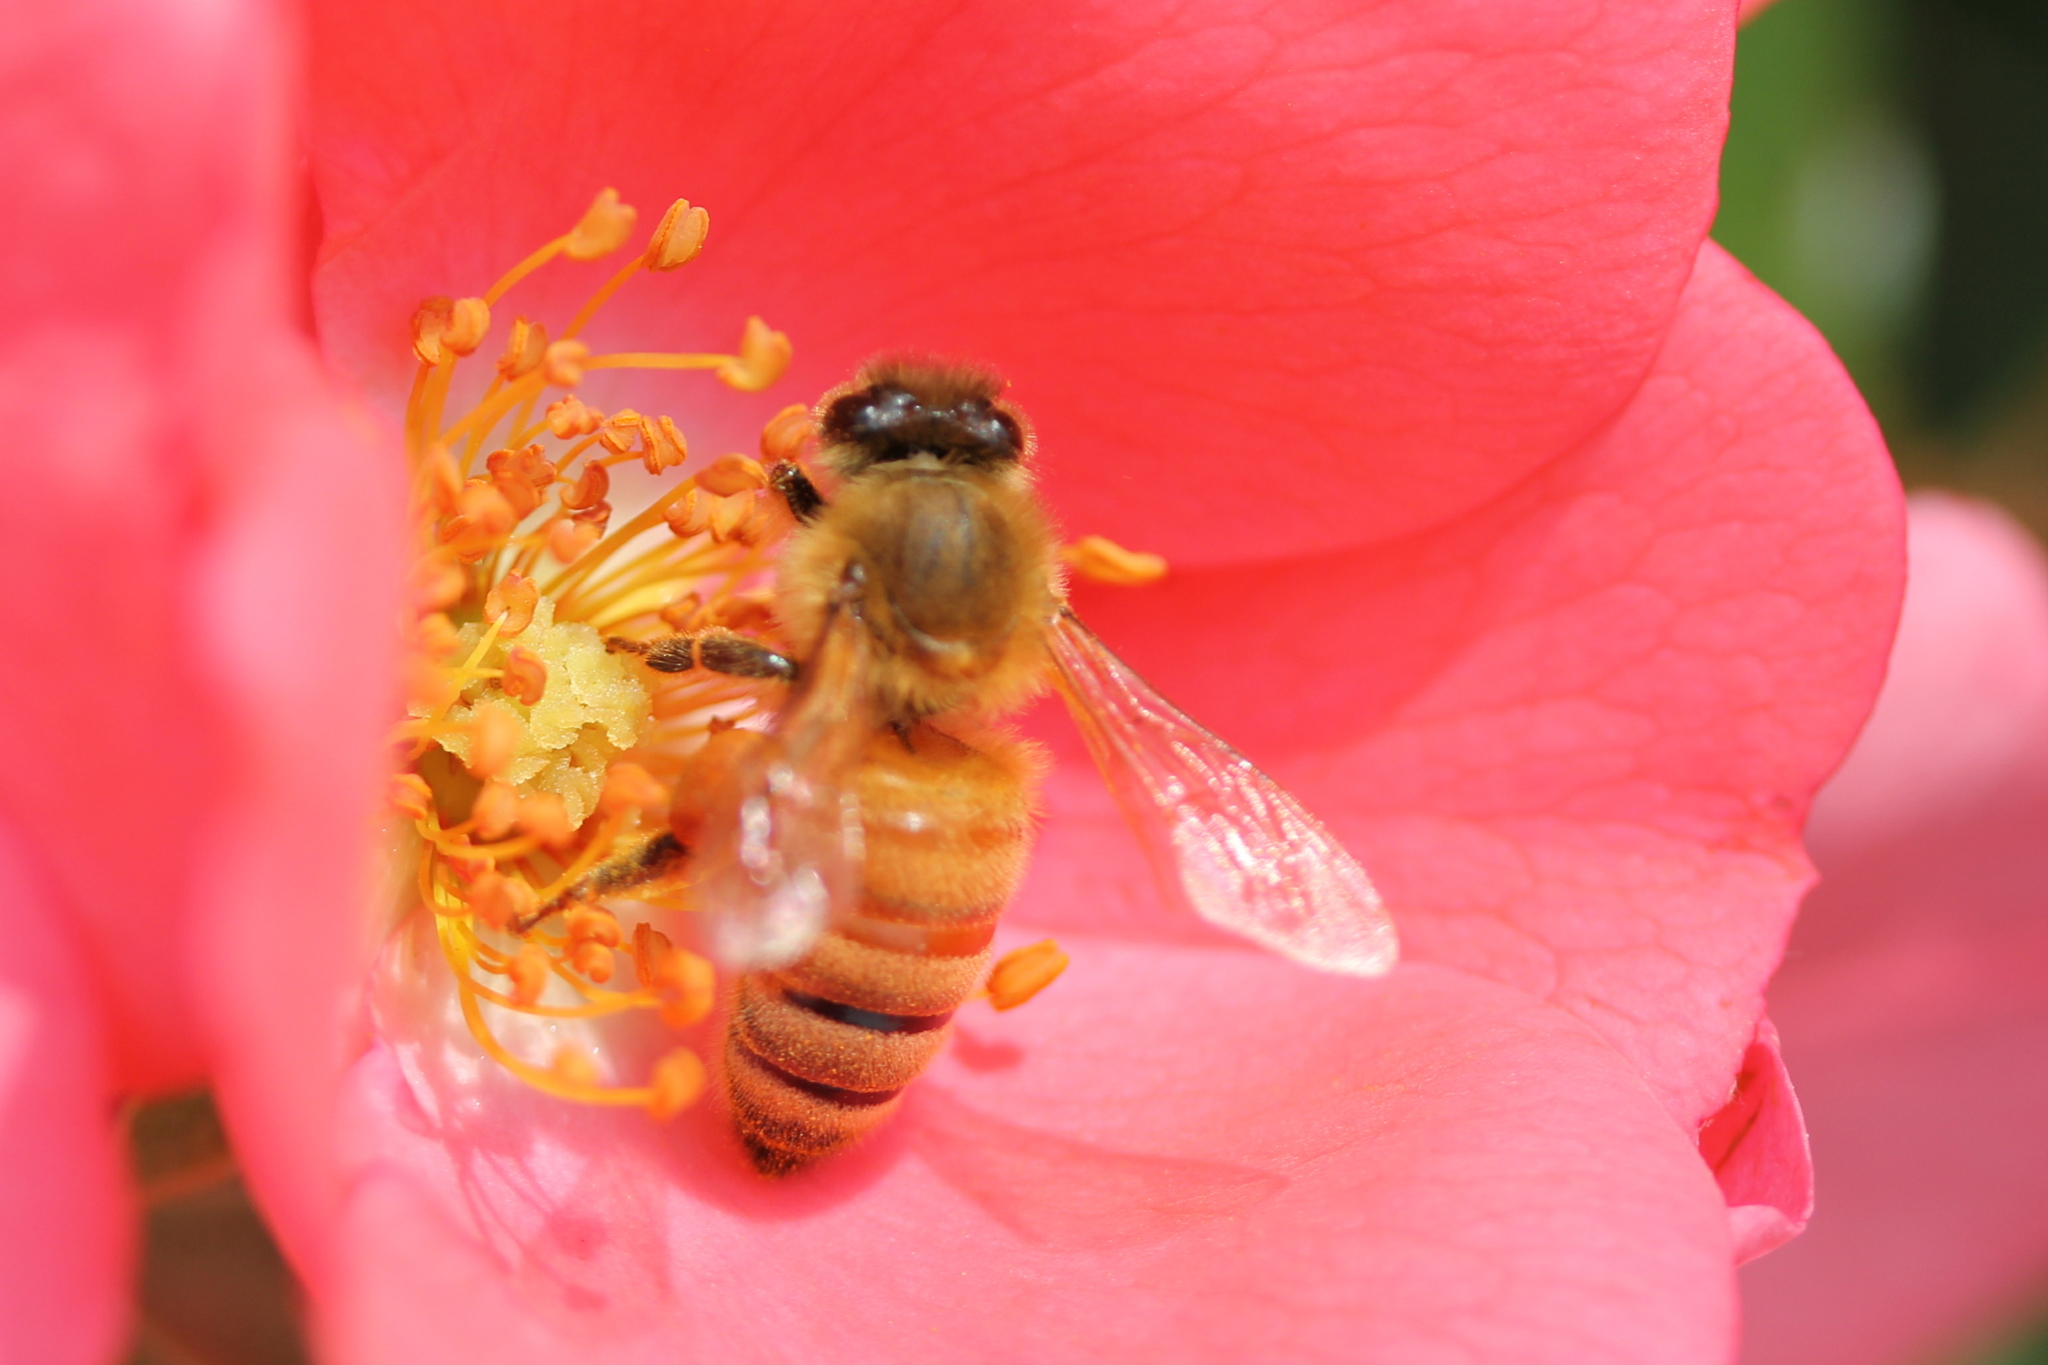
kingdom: Animalia
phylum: Arthropoda
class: Insecta
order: Hymenoptera
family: Apidae
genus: Apis
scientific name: Apis mellifera
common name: Honey bee
